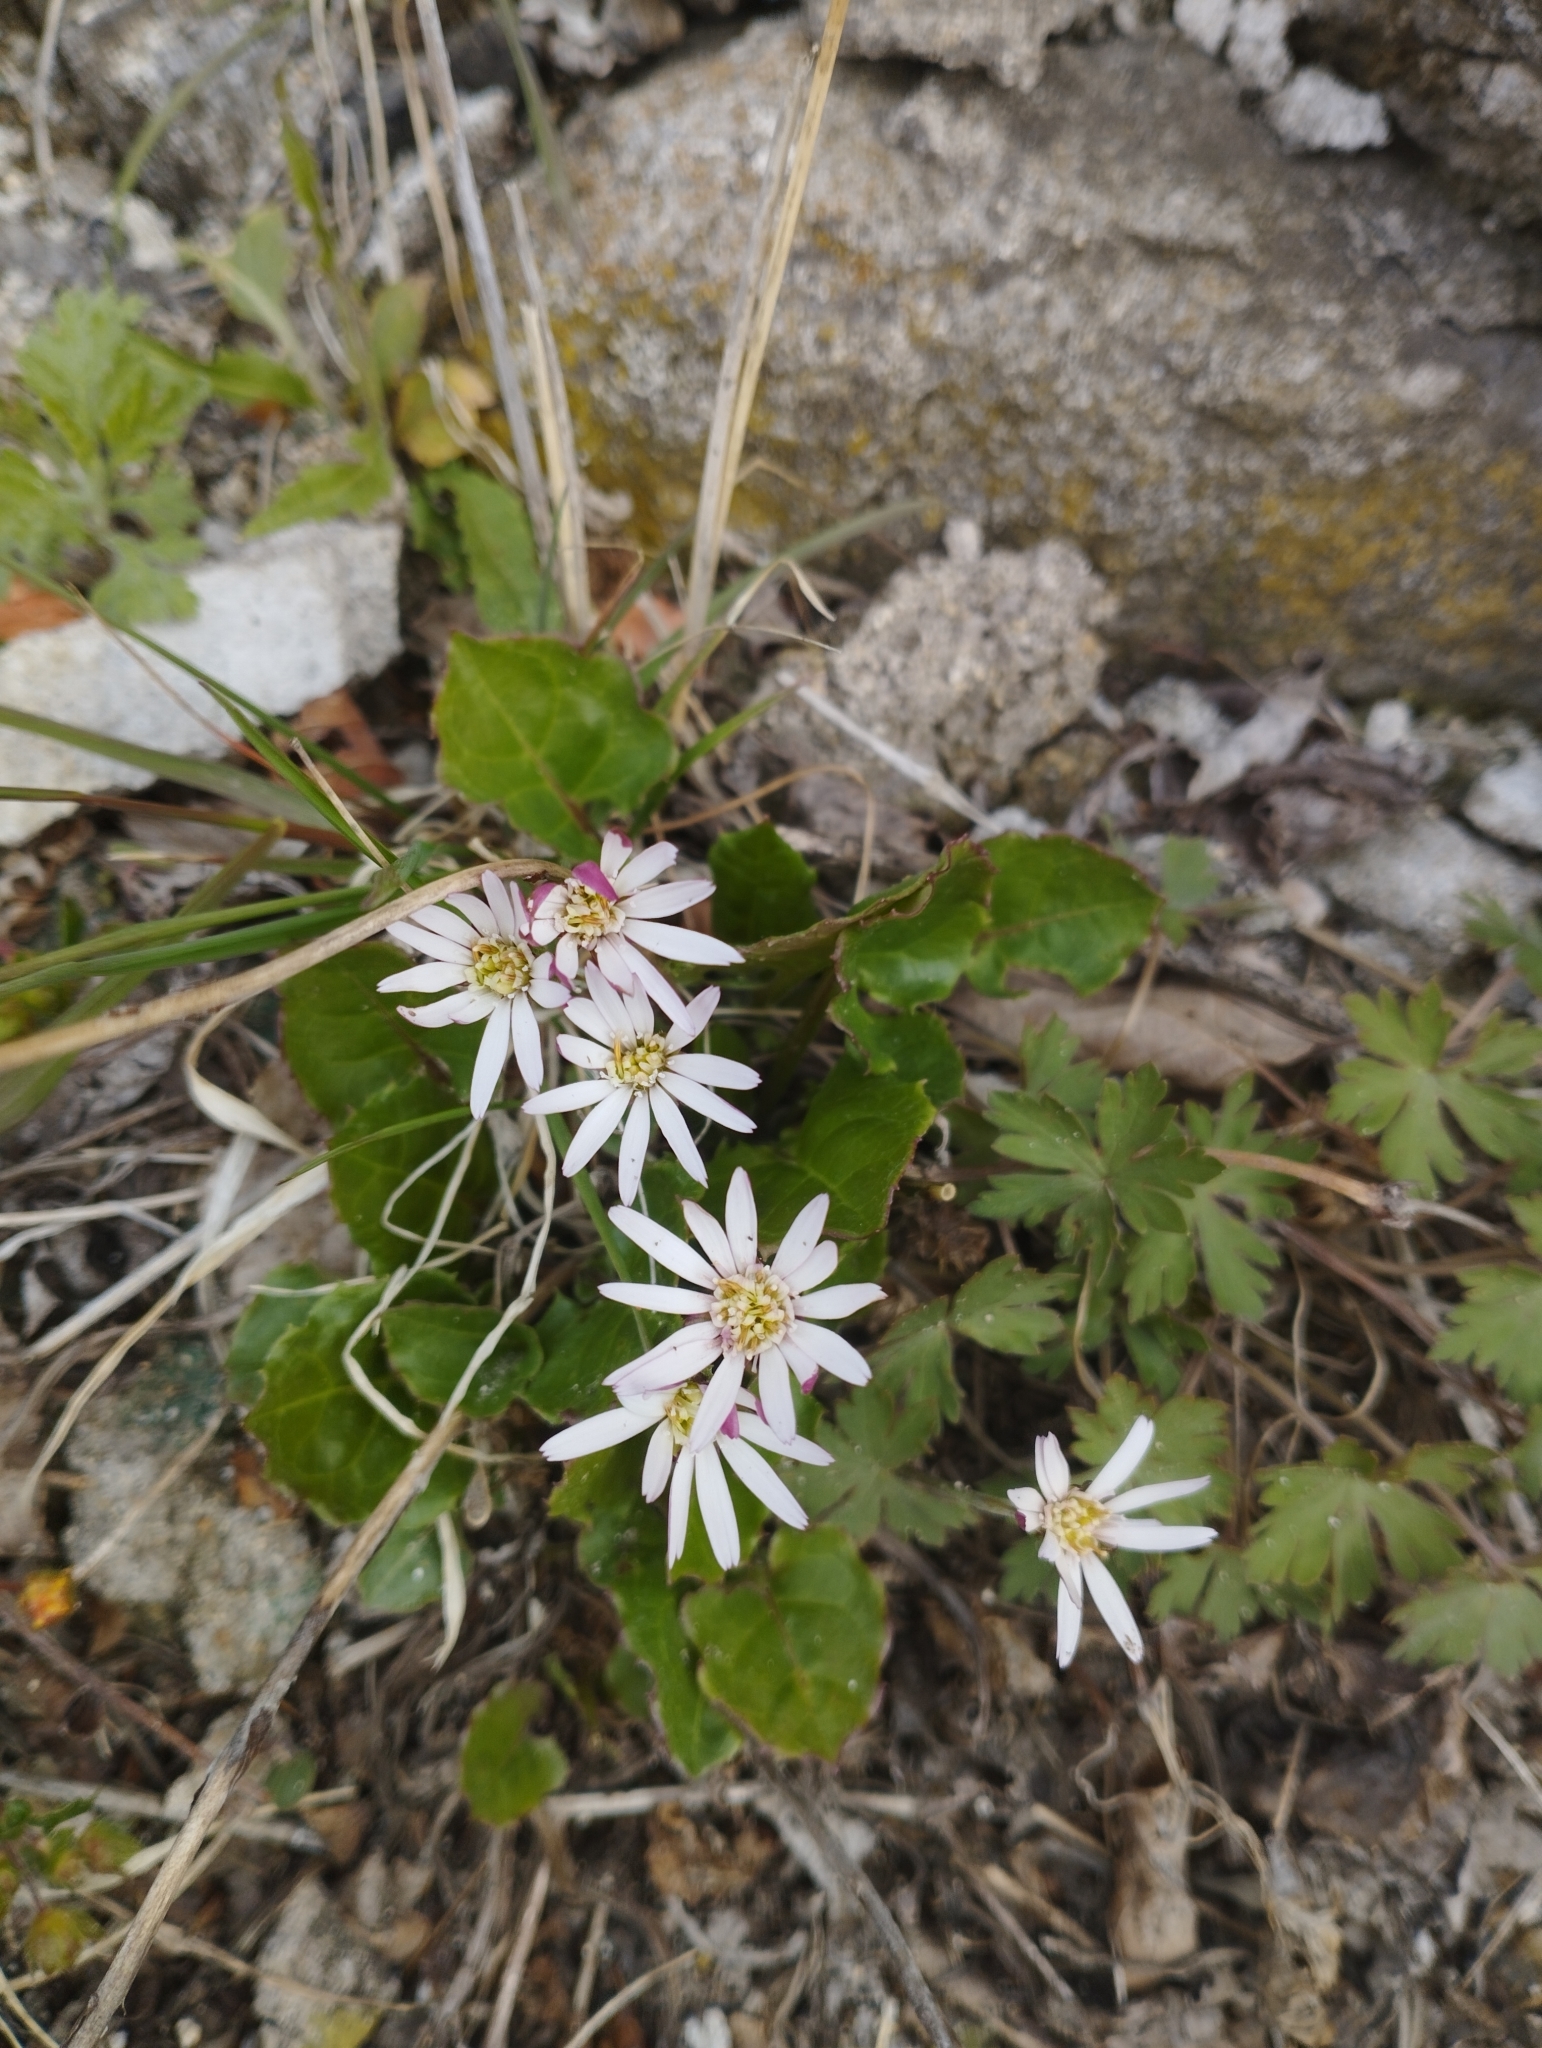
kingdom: Plantae
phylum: Tracheophyta
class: Magnoliopsida
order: Asterales
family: Asteraceae
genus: Leibnitzia
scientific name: Leibnitzia anandria
